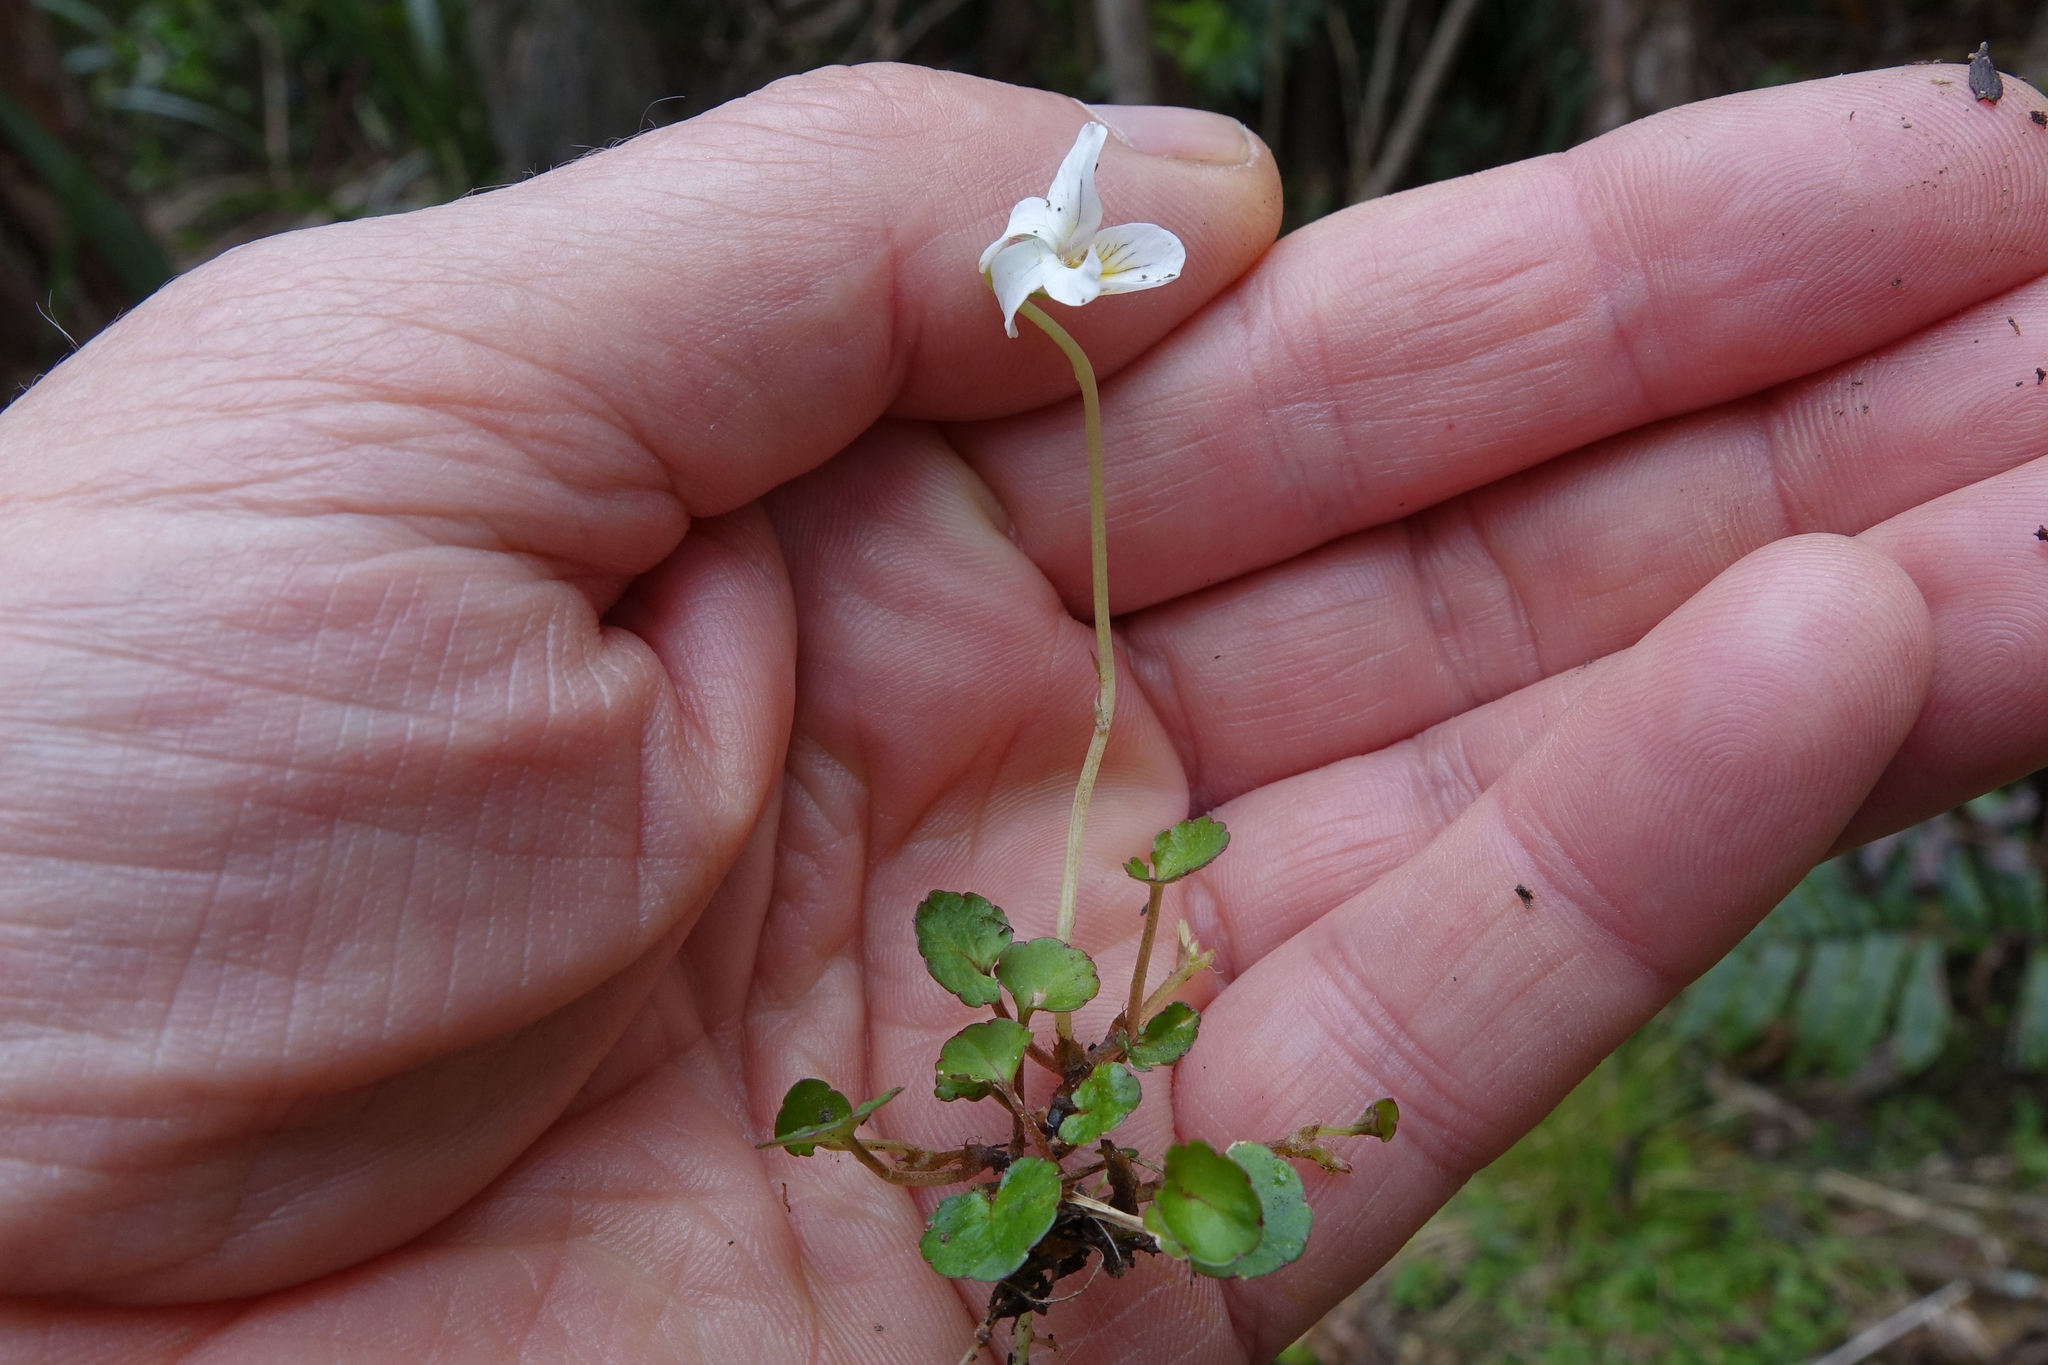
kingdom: Plantae
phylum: Tracheophyta
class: Magnoliopsida
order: Malpighiales
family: Violaceae
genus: Viola
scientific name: Viola filicaulis
